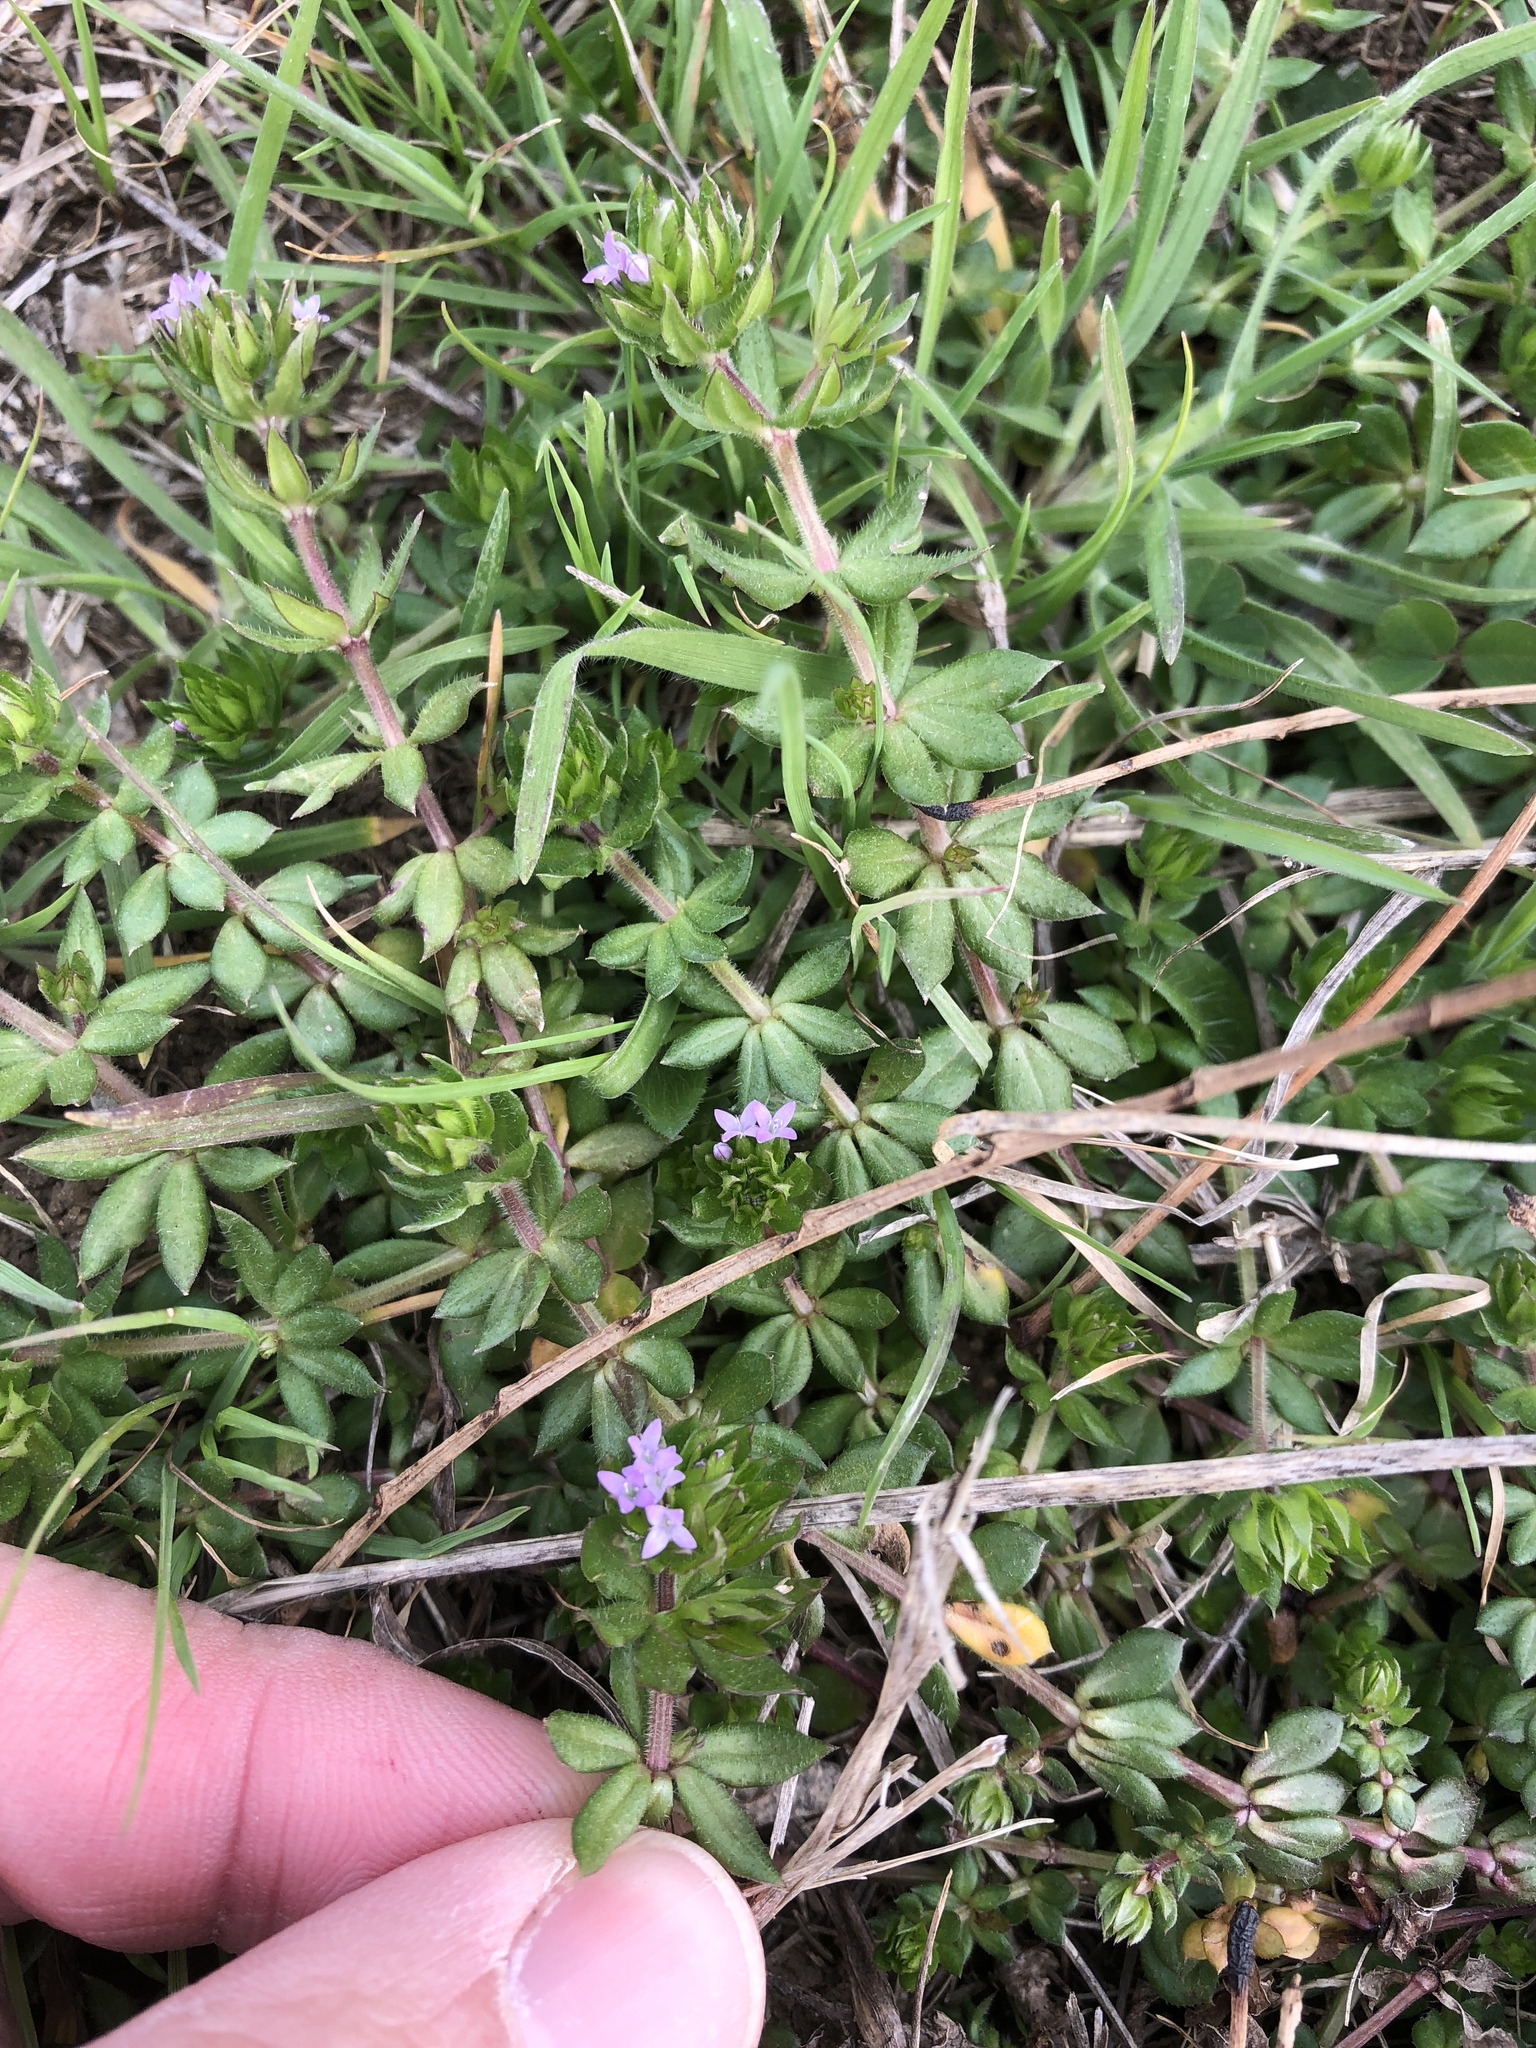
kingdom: Plantae
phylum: Tracheophyta
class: Magnoliopsida
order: Gentianales
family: Rubiaceae
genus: Sherardia
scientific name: Sherardia arvensis
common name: Field madder
